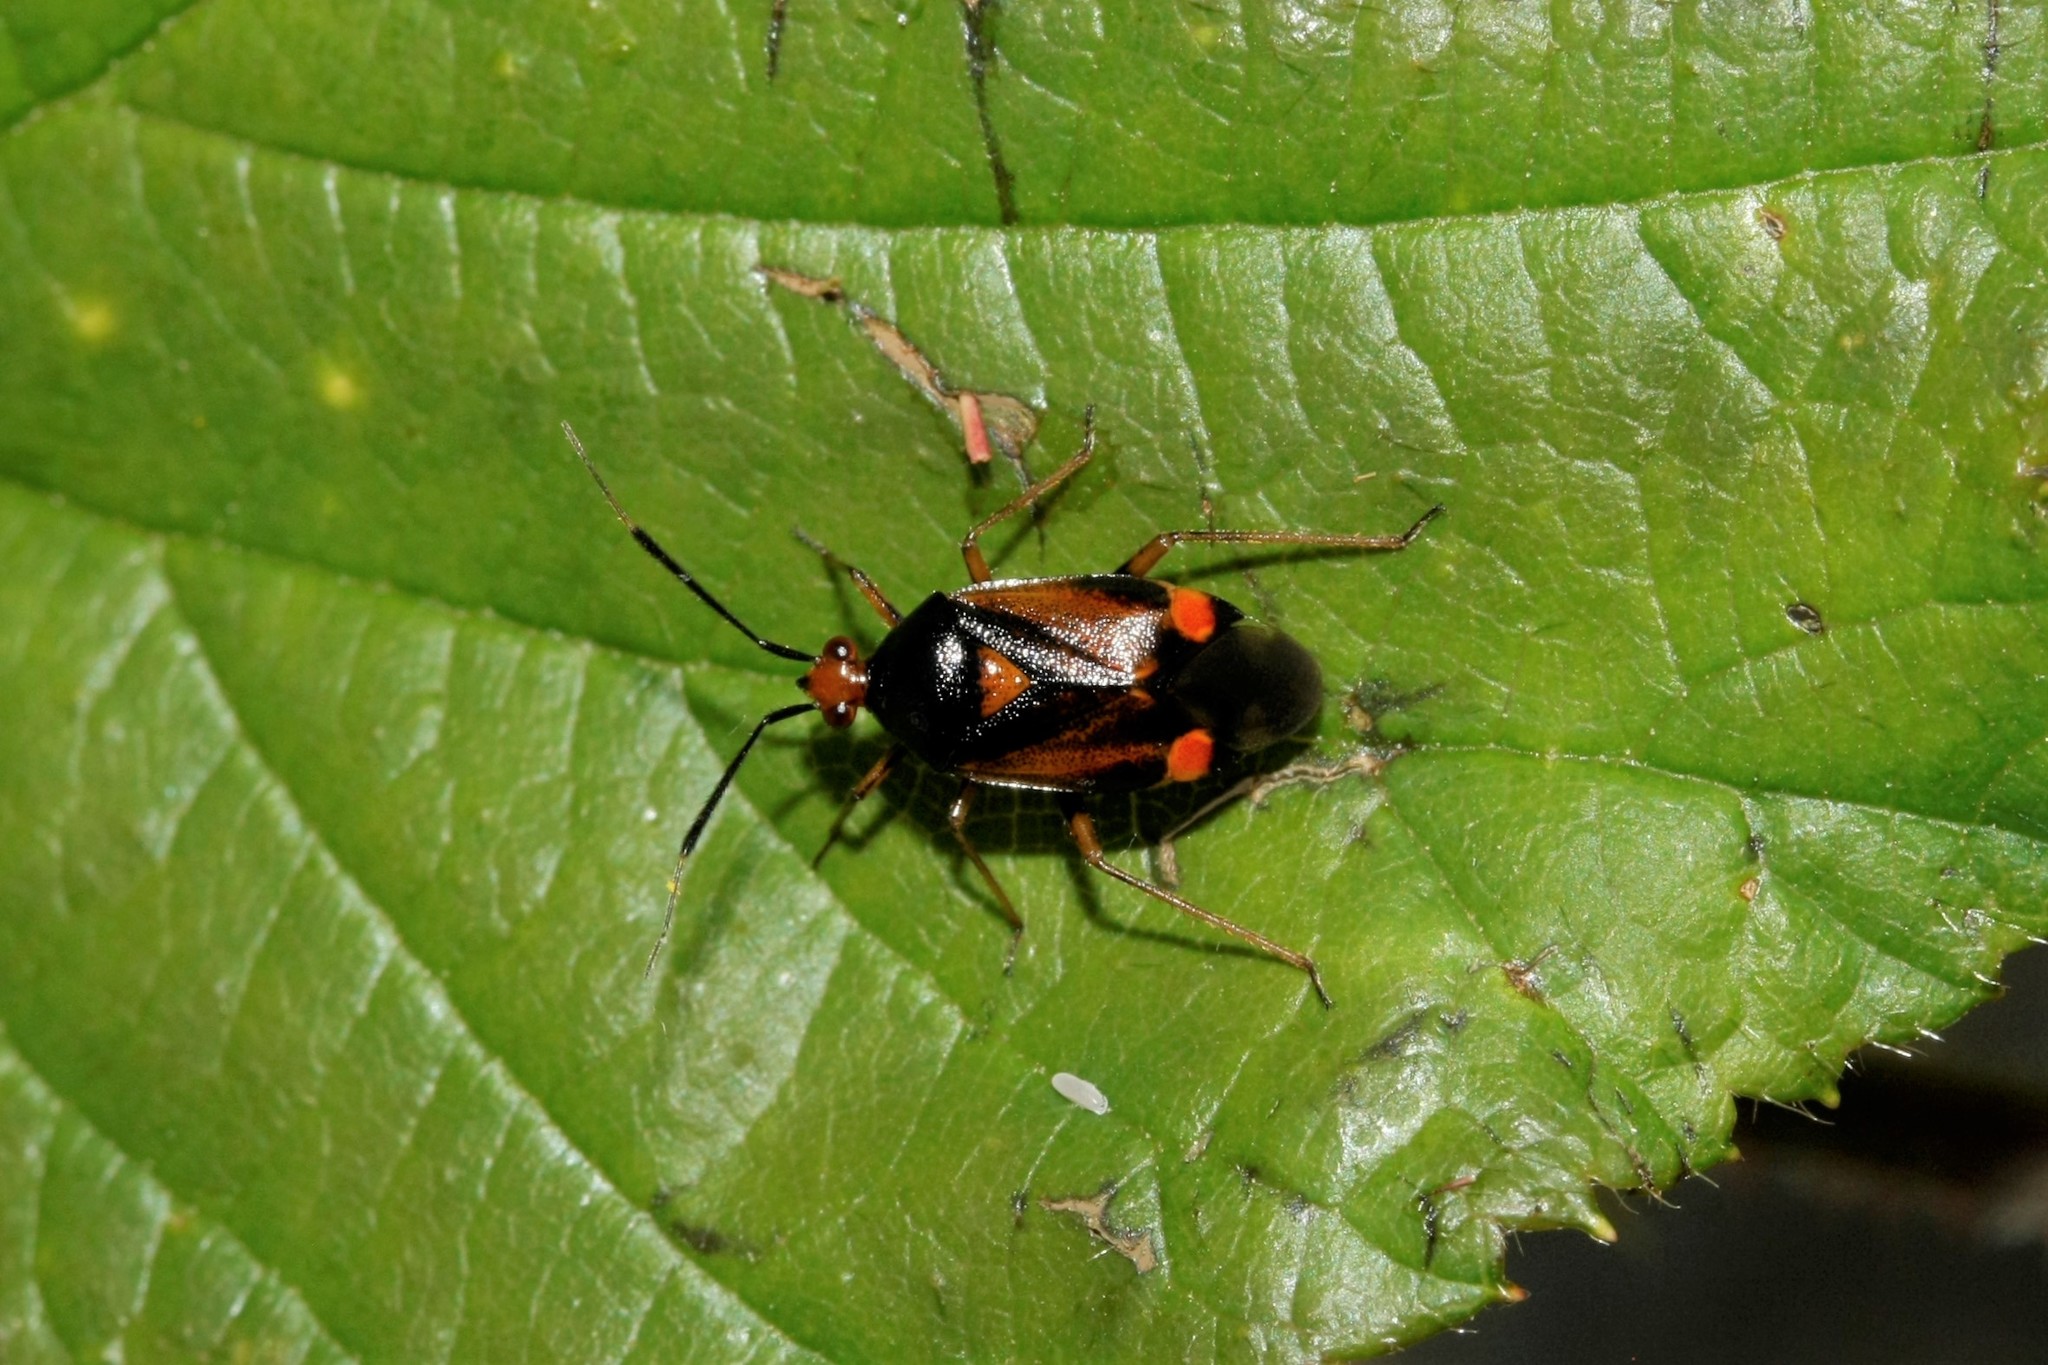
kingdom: Animalia
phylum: Arthropoda
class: Insecta
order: Hemiptera
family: Miridae
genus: Deraeocoris
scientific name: Deraeocoris ruber
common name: Plant bug
